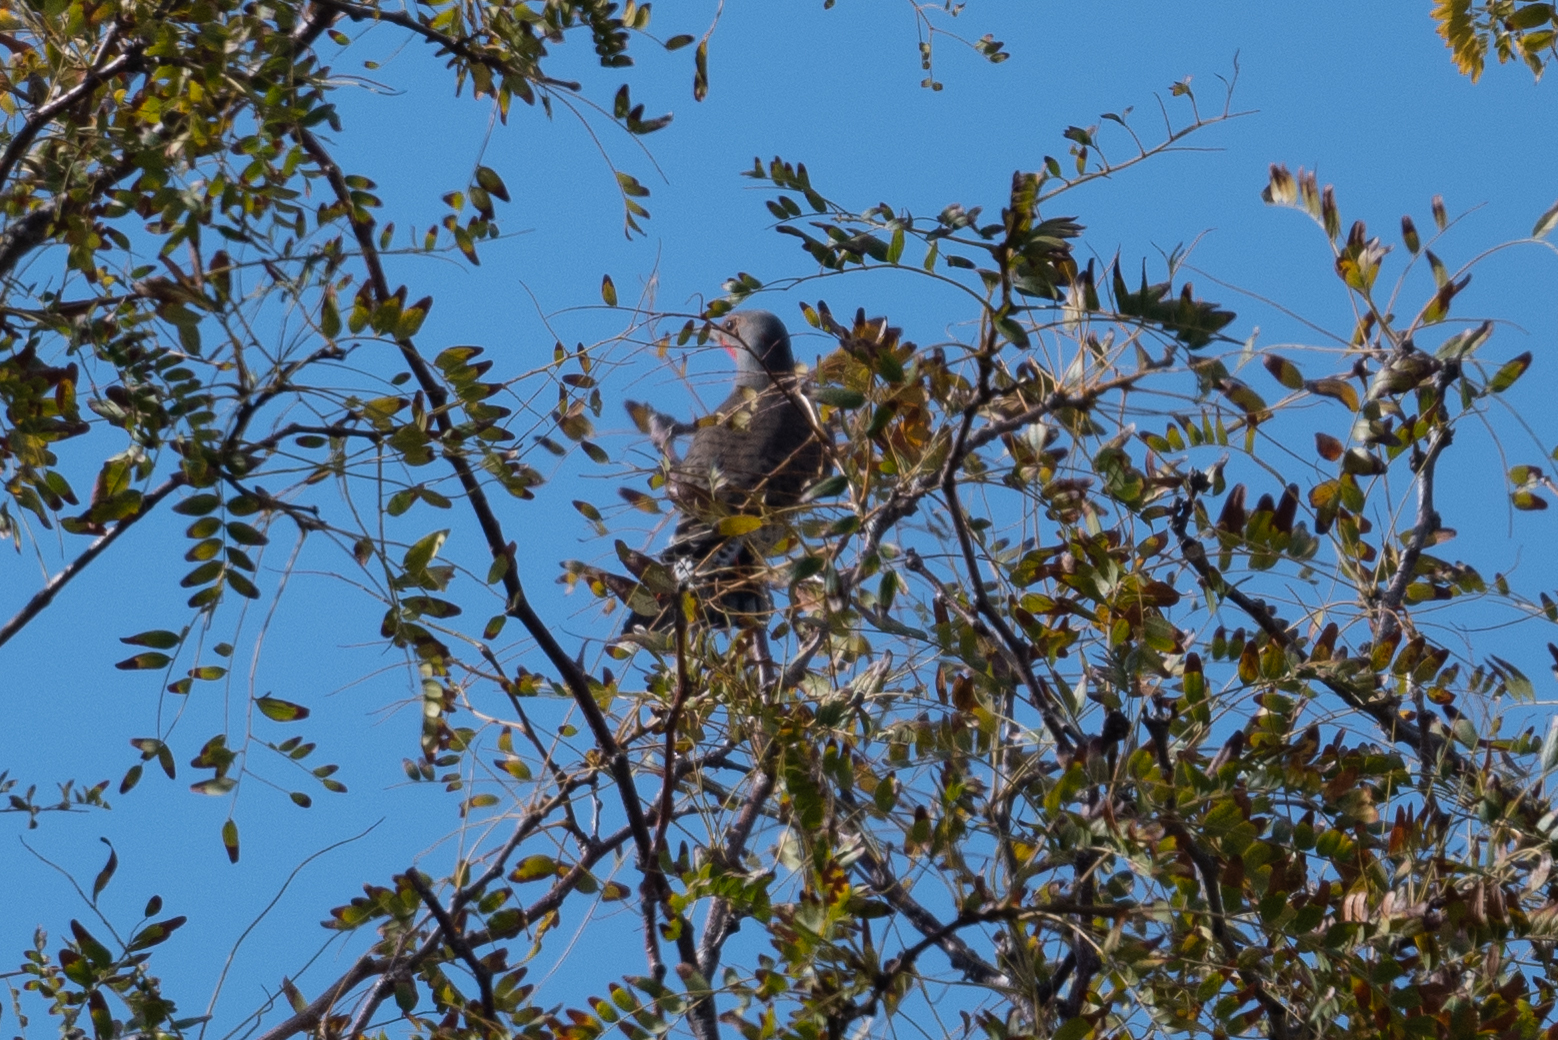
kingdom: Animalia
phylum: Chordata
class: Aves
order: Piciformes
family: Picidae
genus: Colaptes
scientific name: Colaptes auratus
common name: Northern flicker
